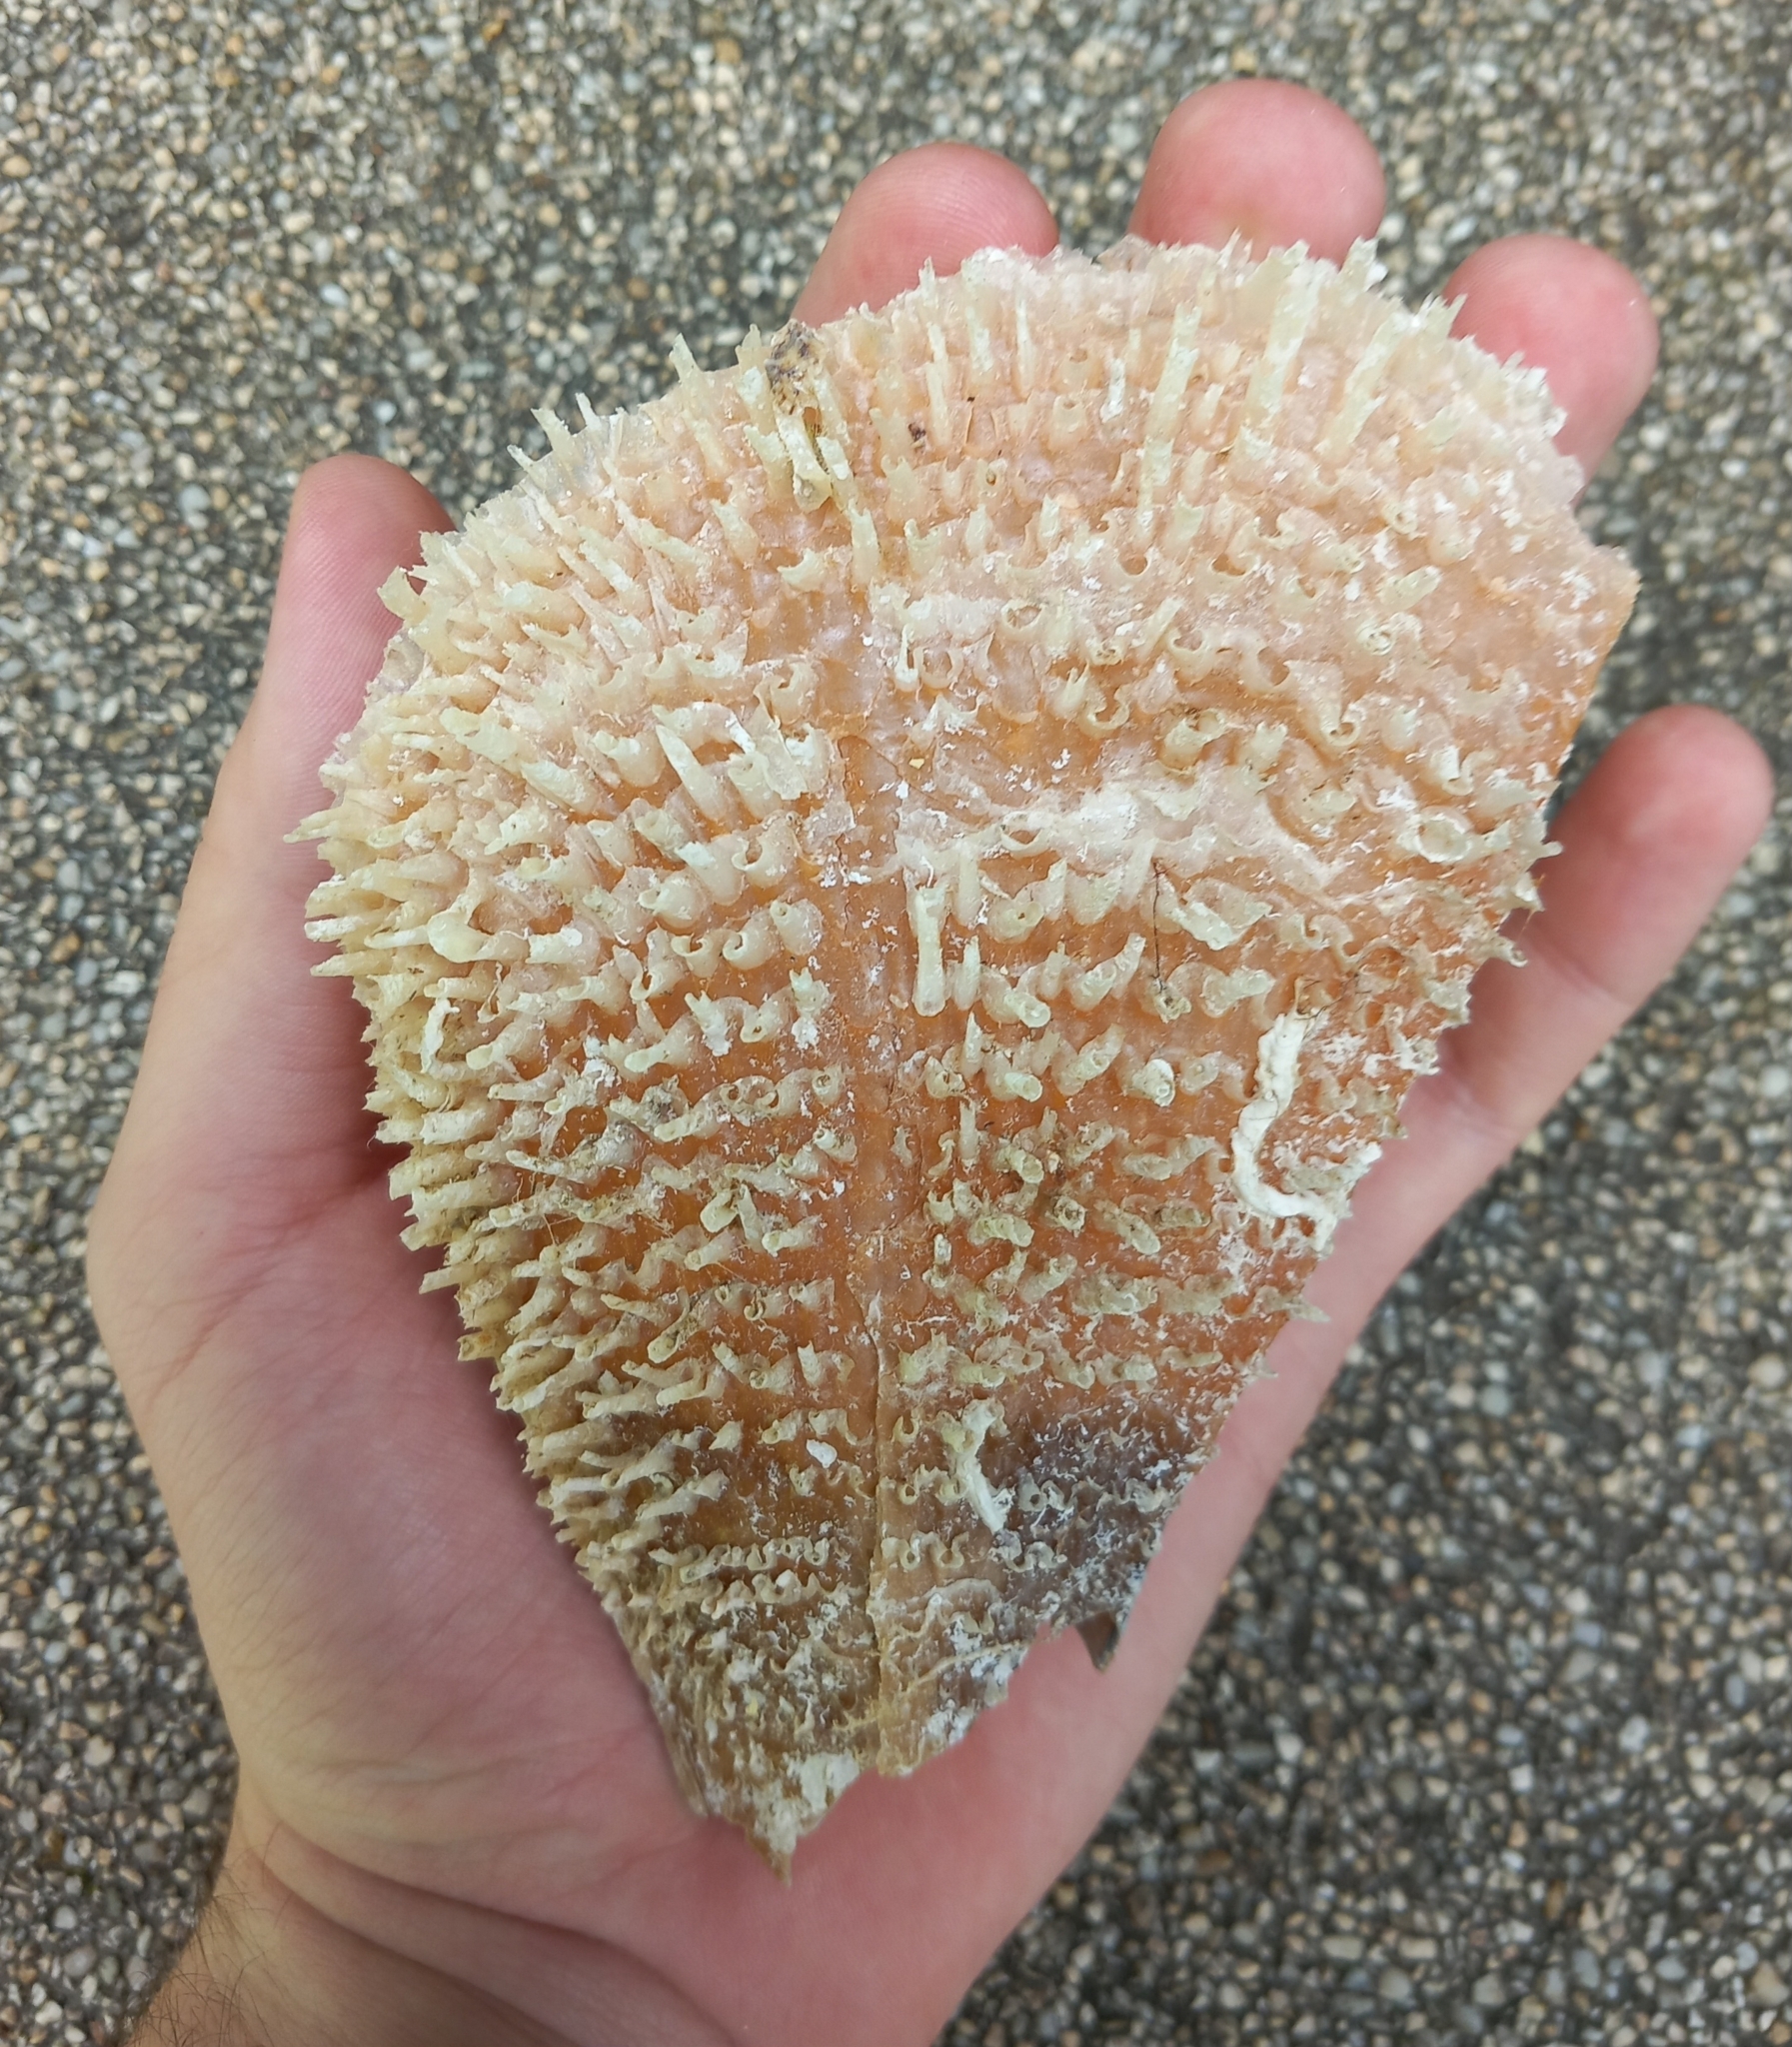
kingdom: Animalia
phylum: Mollusca
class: Bivalvia
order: Ostreida
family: Pinnidae
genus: Pinna
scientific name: Pinna nobilis
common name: Fan mussel
